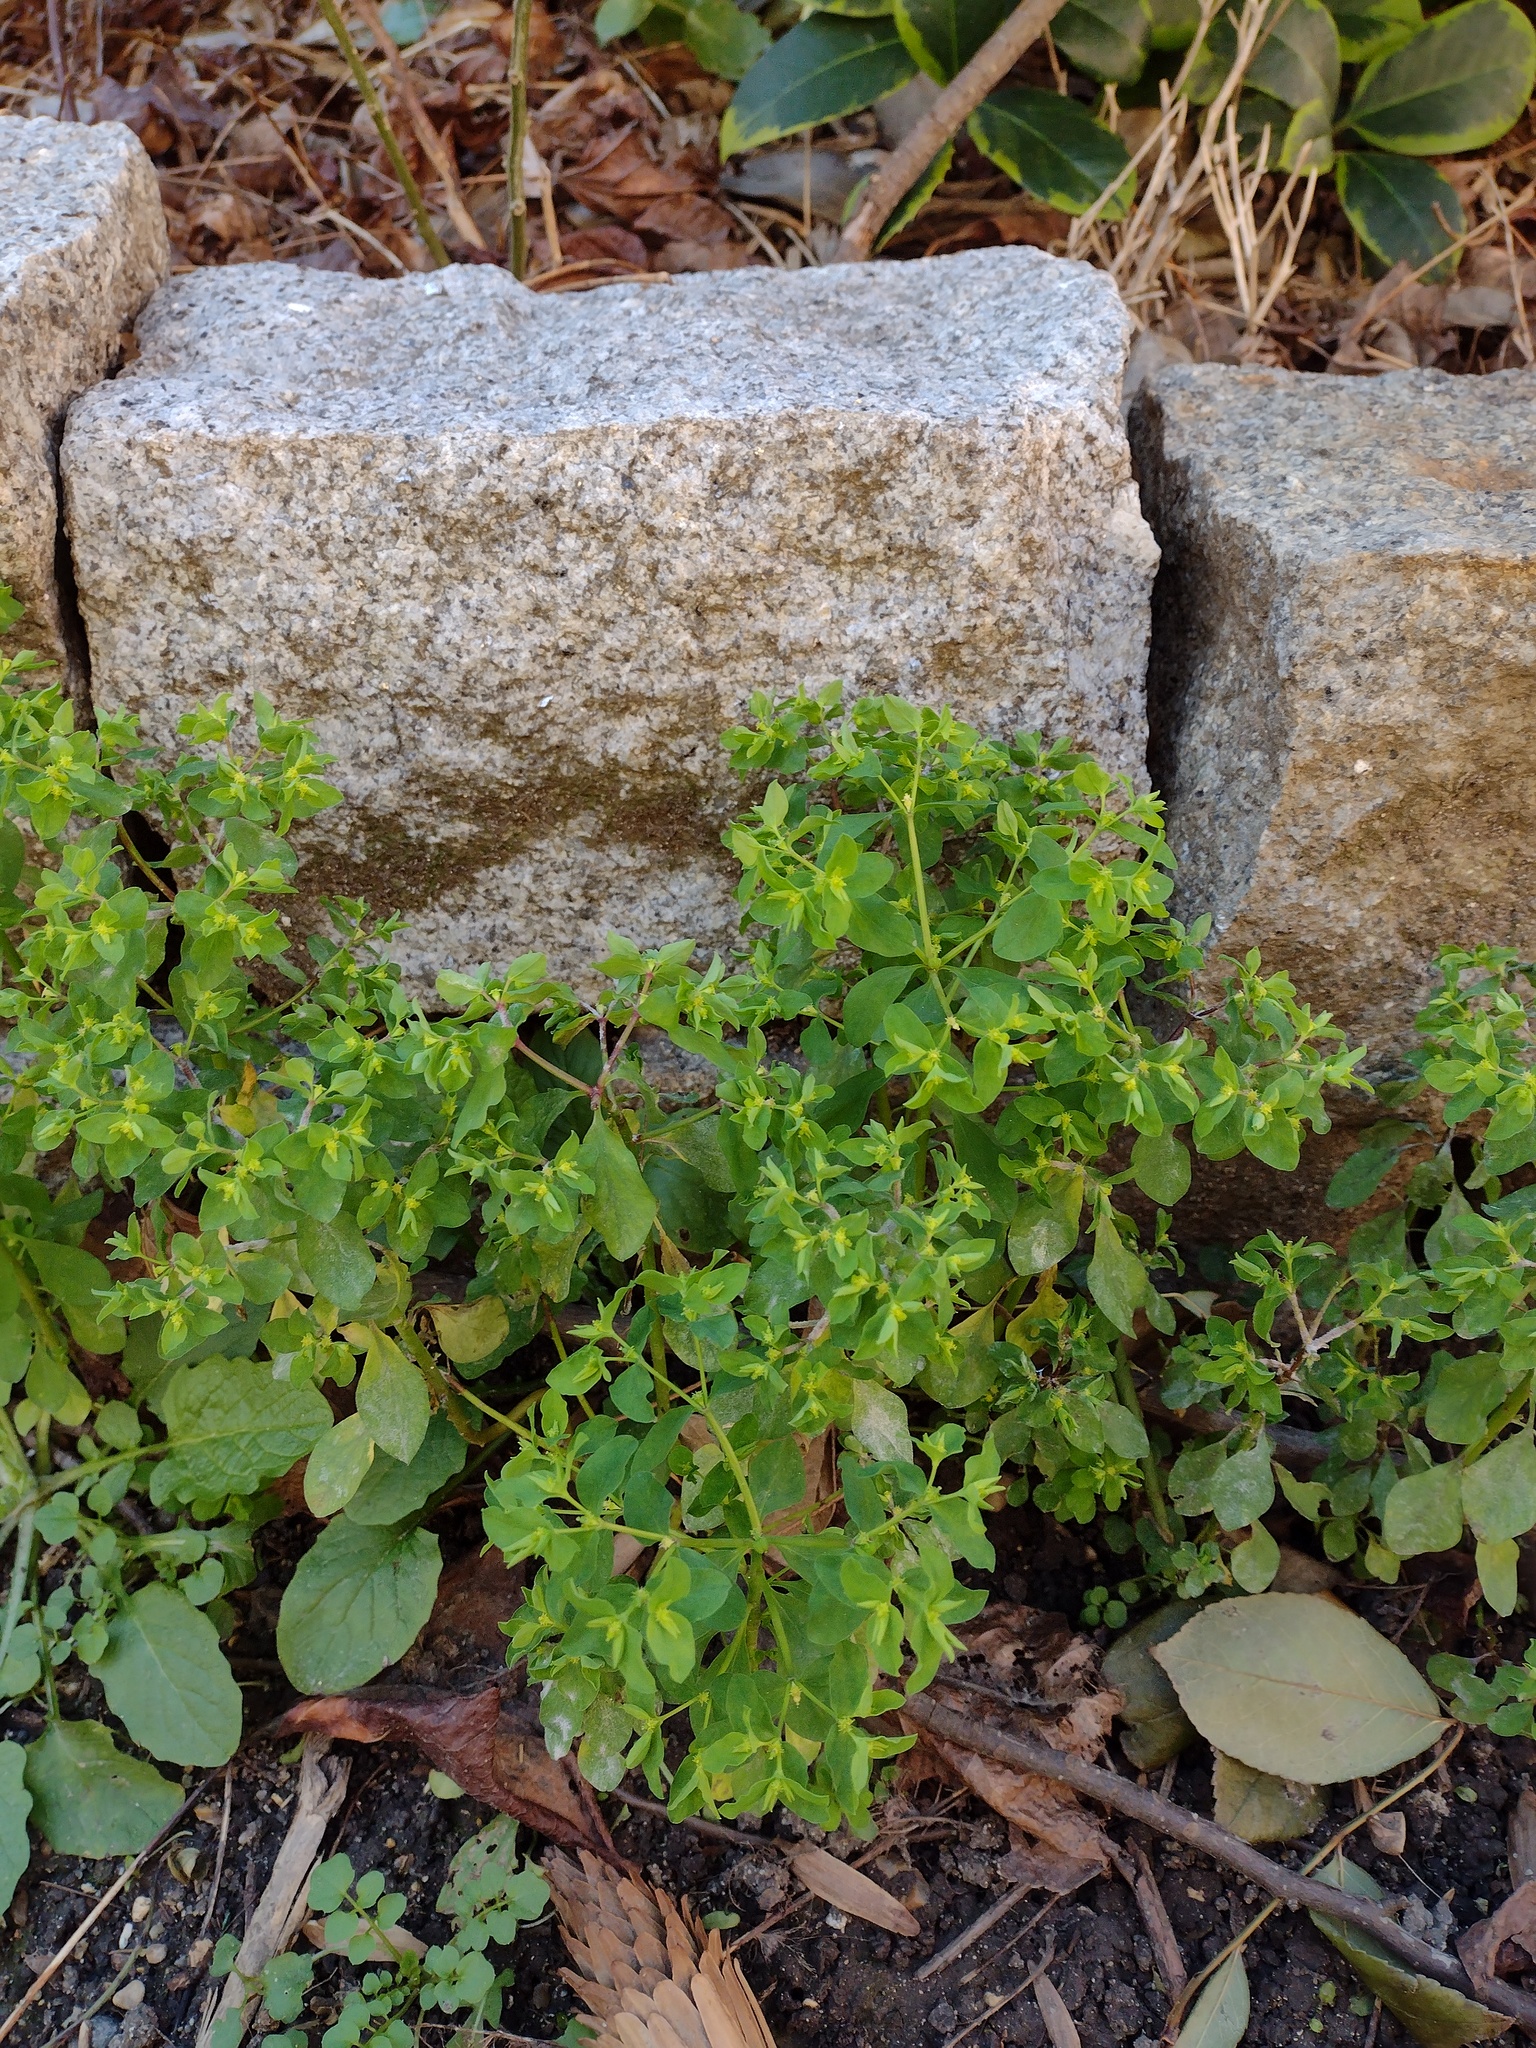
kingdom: Plantae
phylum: Tracheophyta
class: Magnoliopsida
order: Malpighiales
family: Euphorbiaceae
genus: Euphorbia
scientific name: Euphorbia peplus
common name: Petty spurge
